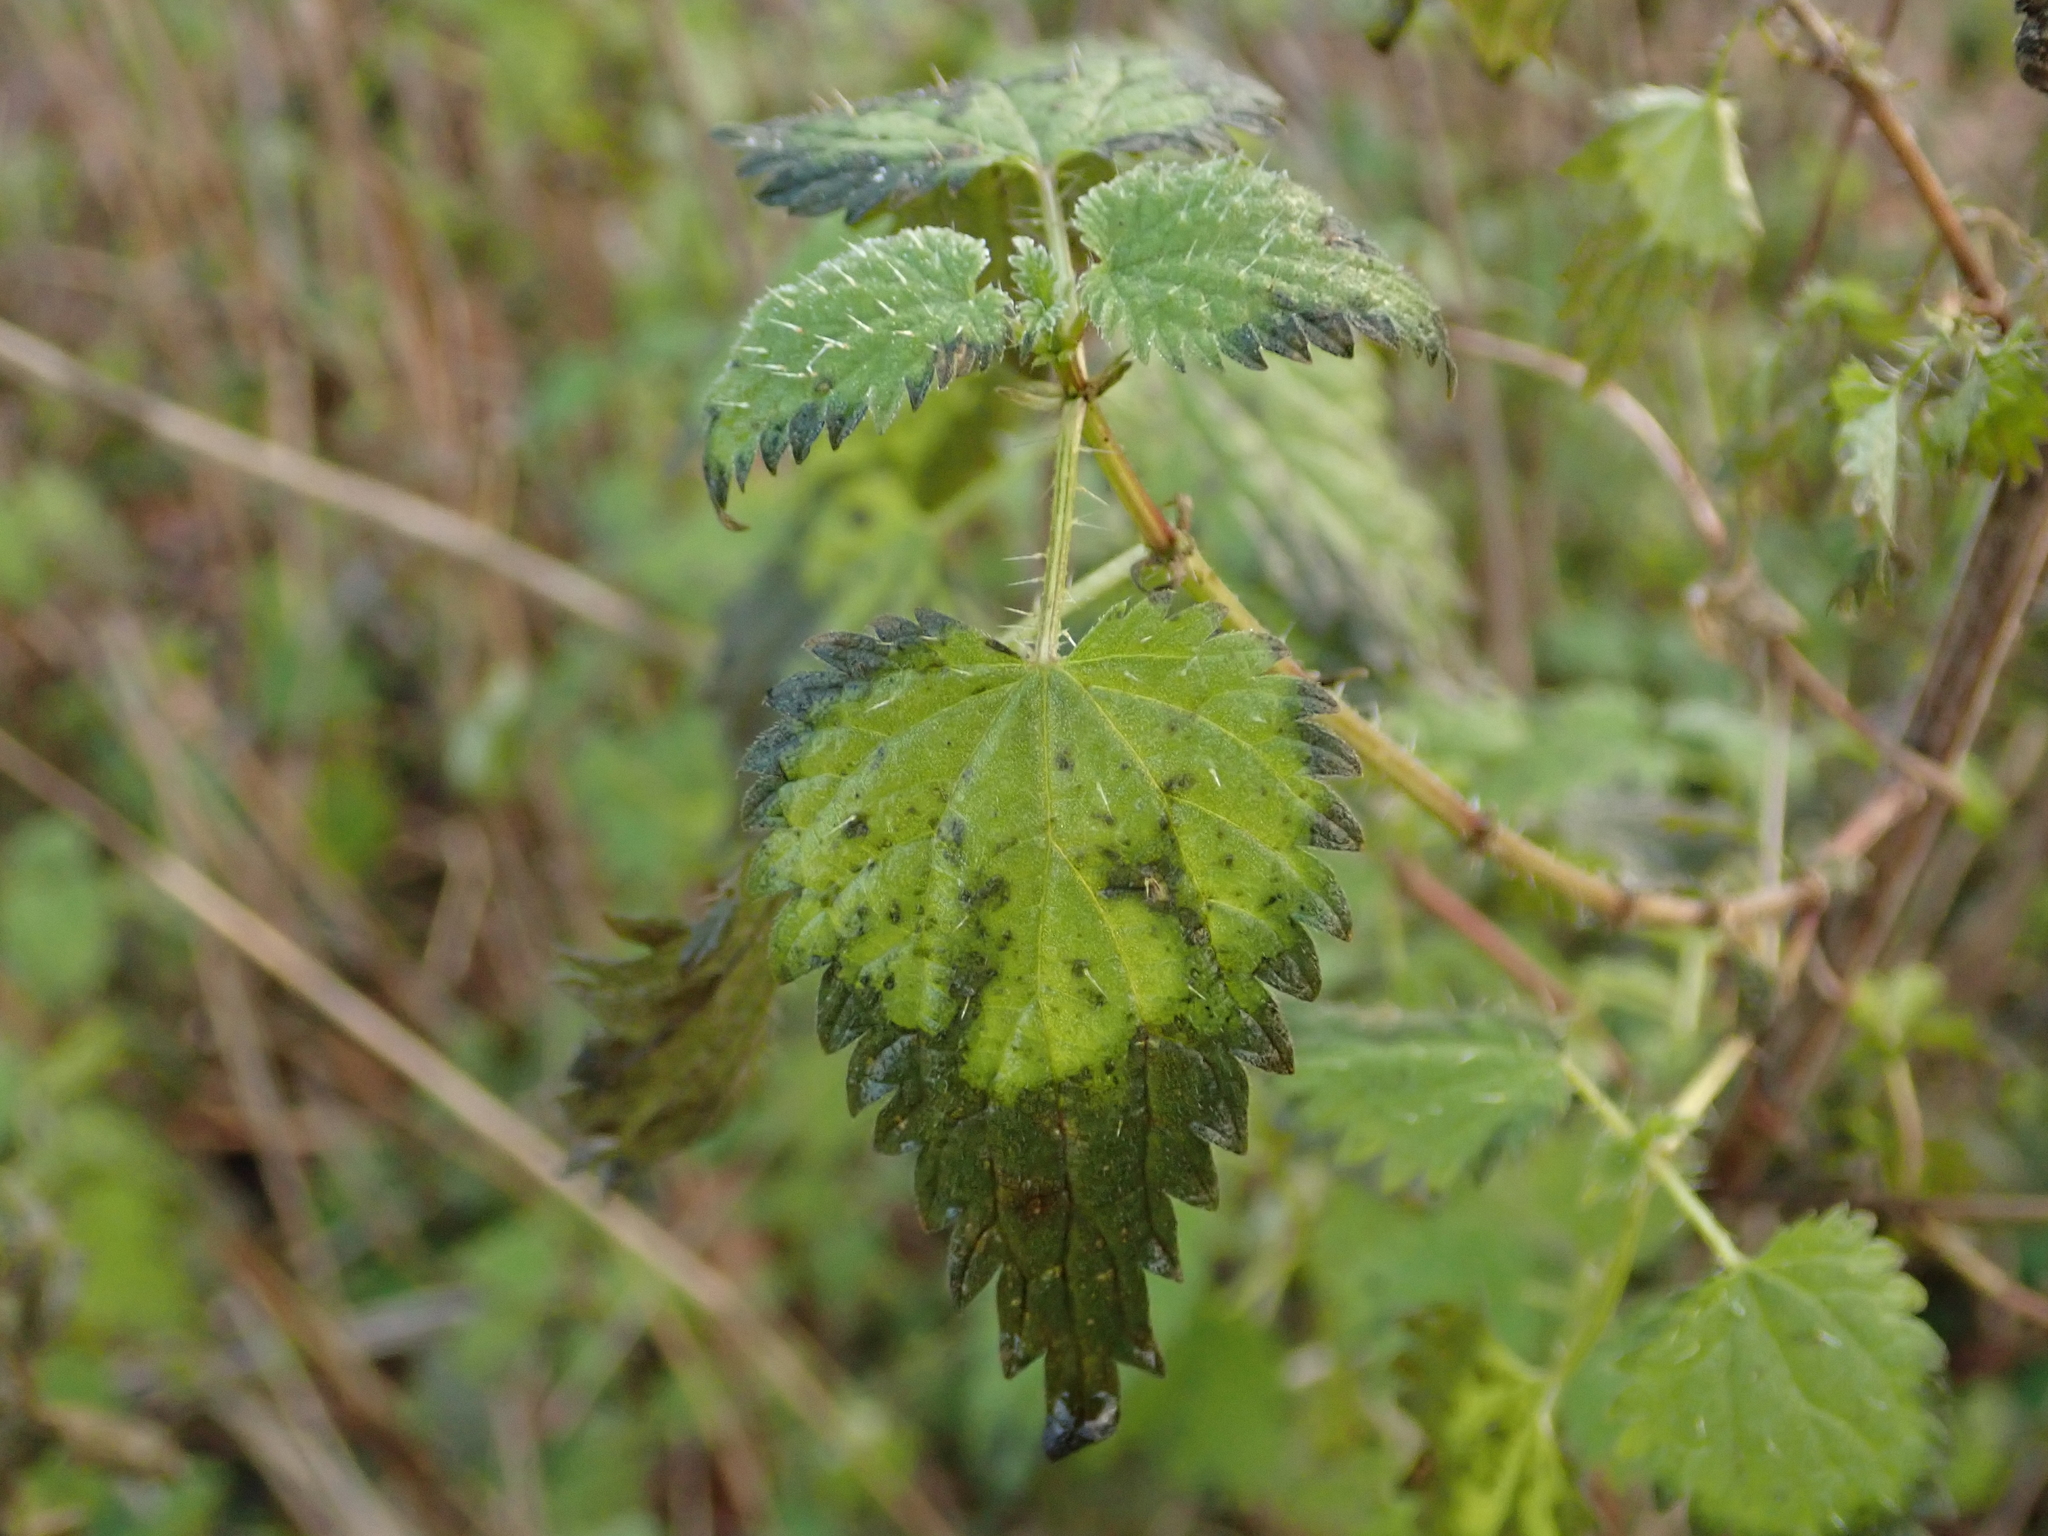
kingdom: Plantae
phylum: Tracheophyta
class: Magnoliopsida
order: Rosales
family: Urticaceae
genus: Urtica
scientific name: Urtica dioica
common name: Common nettle
